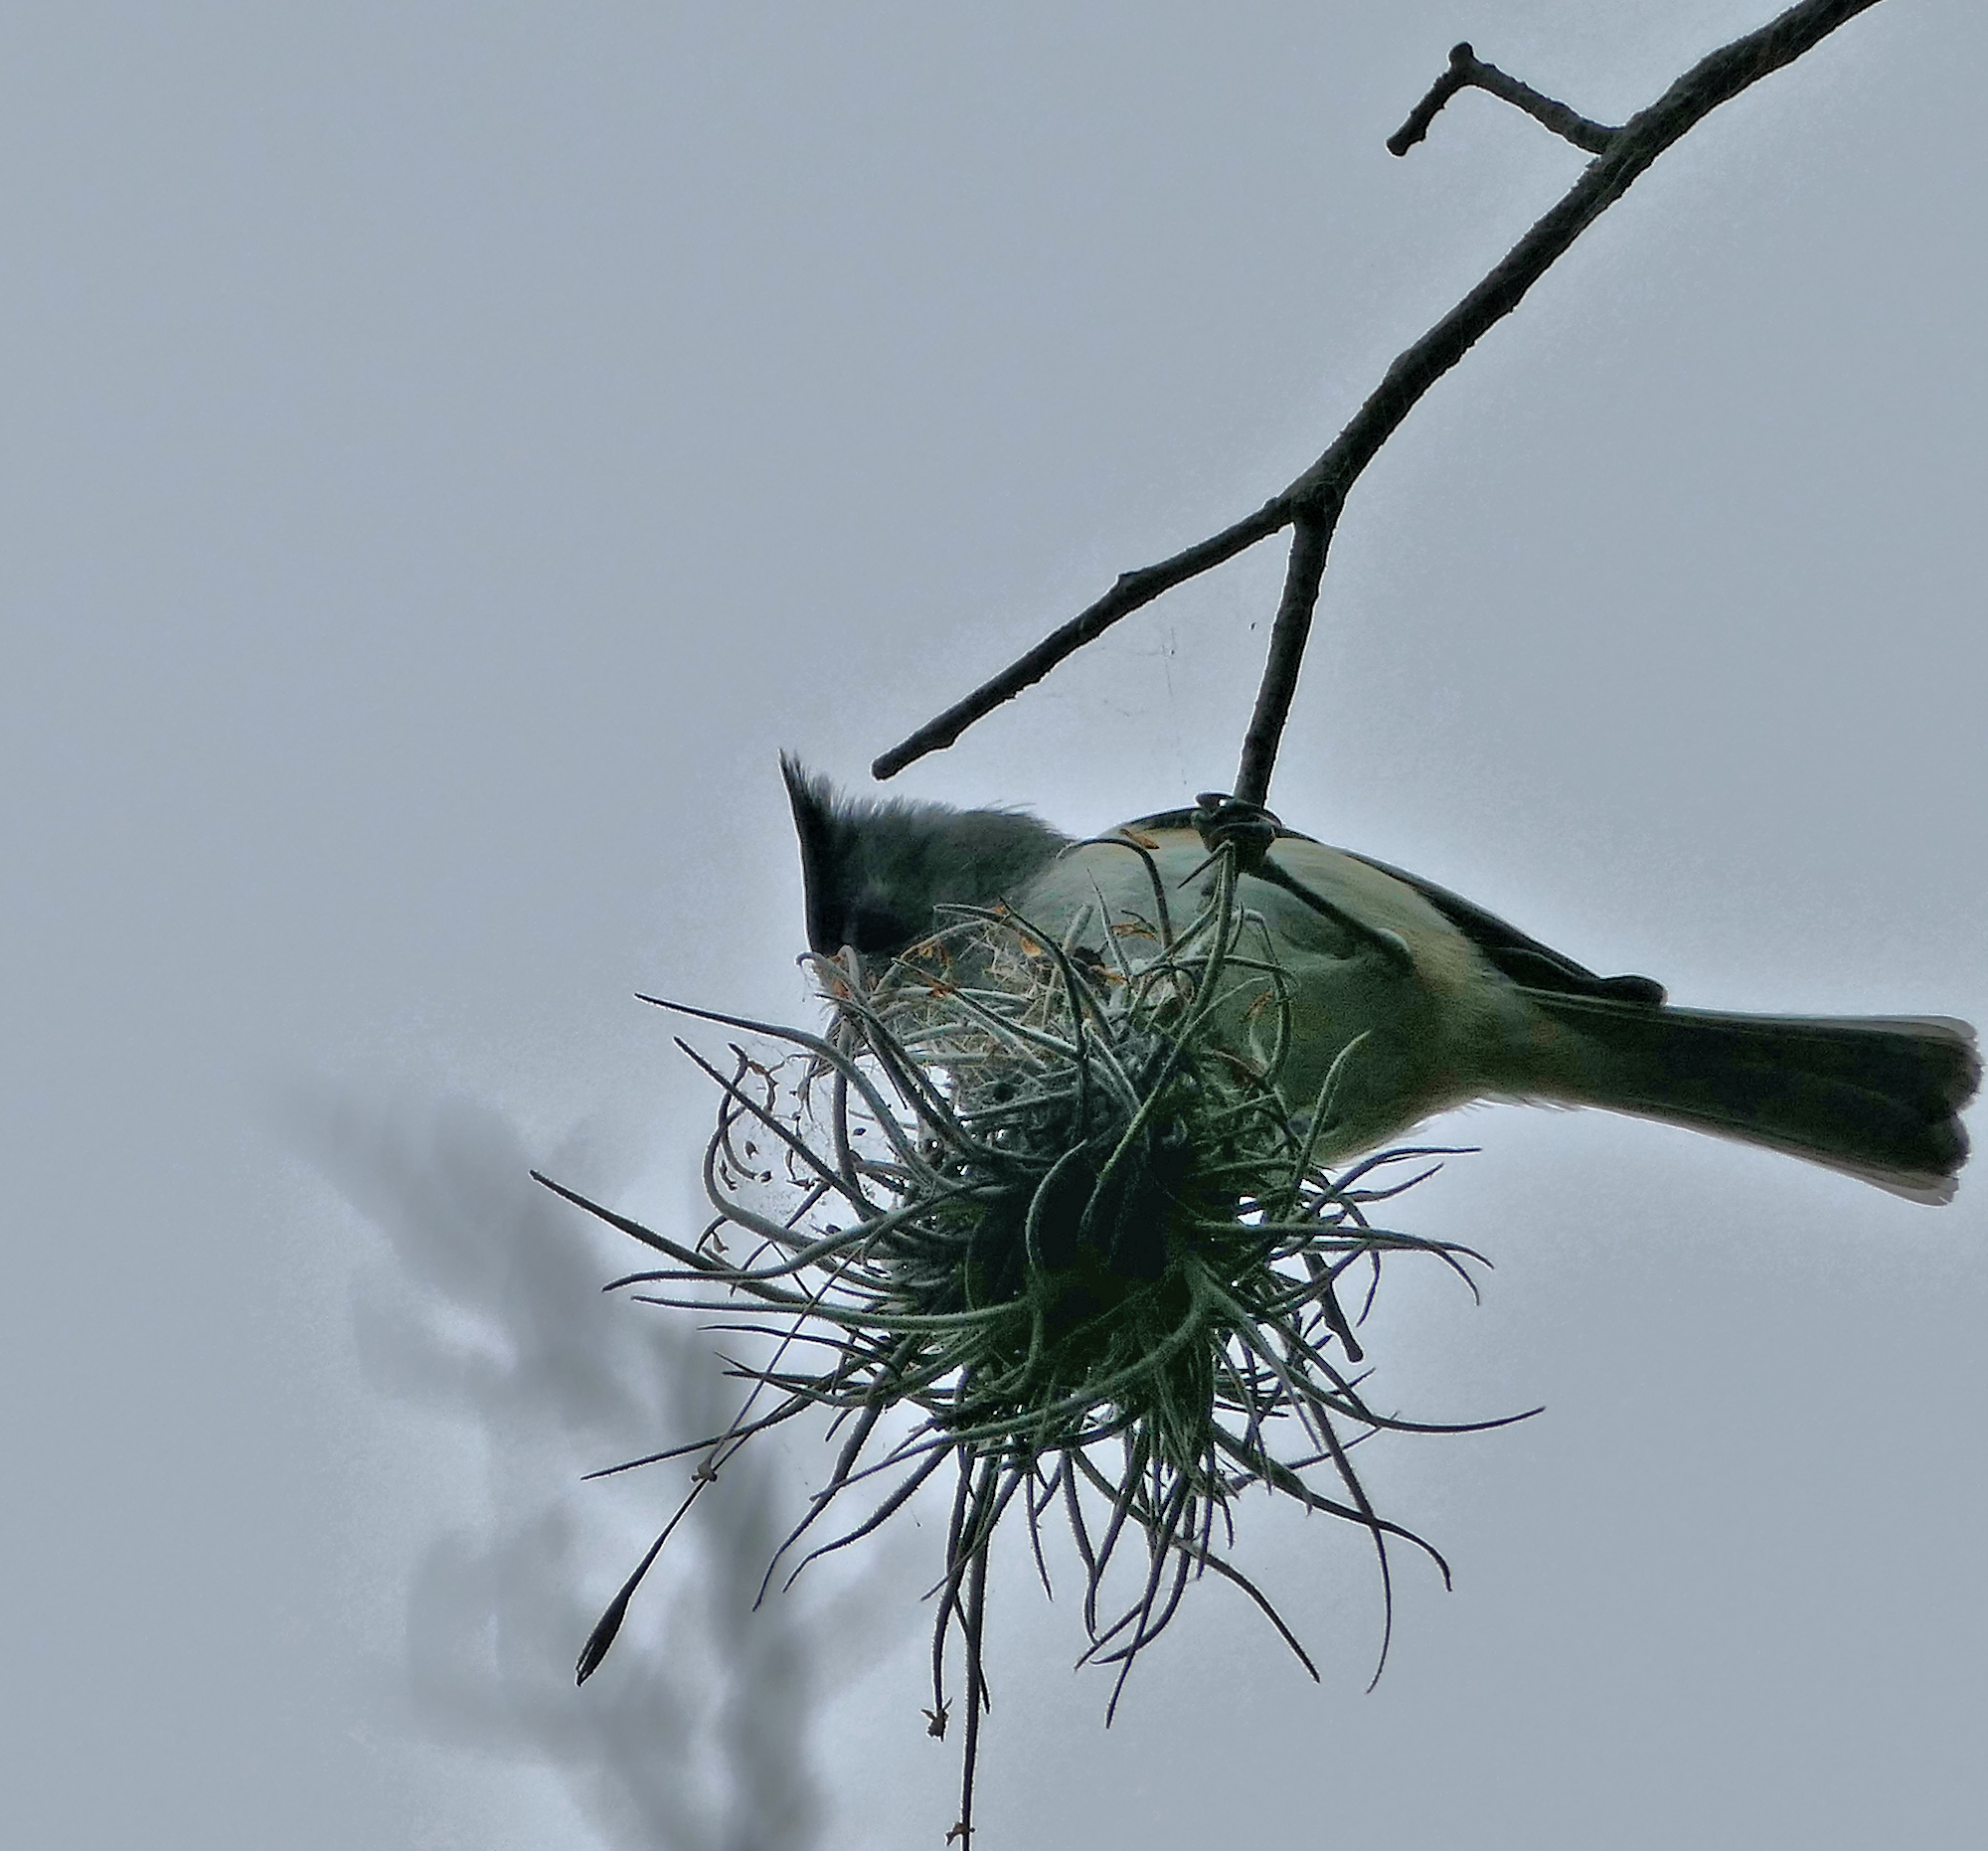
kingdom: Animalia
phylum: Chordata
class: Aves
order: Passeriformes
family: Paridae
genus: Baeolophus
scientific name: Baeolophus atricristatus
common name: Black-crested titmouse
